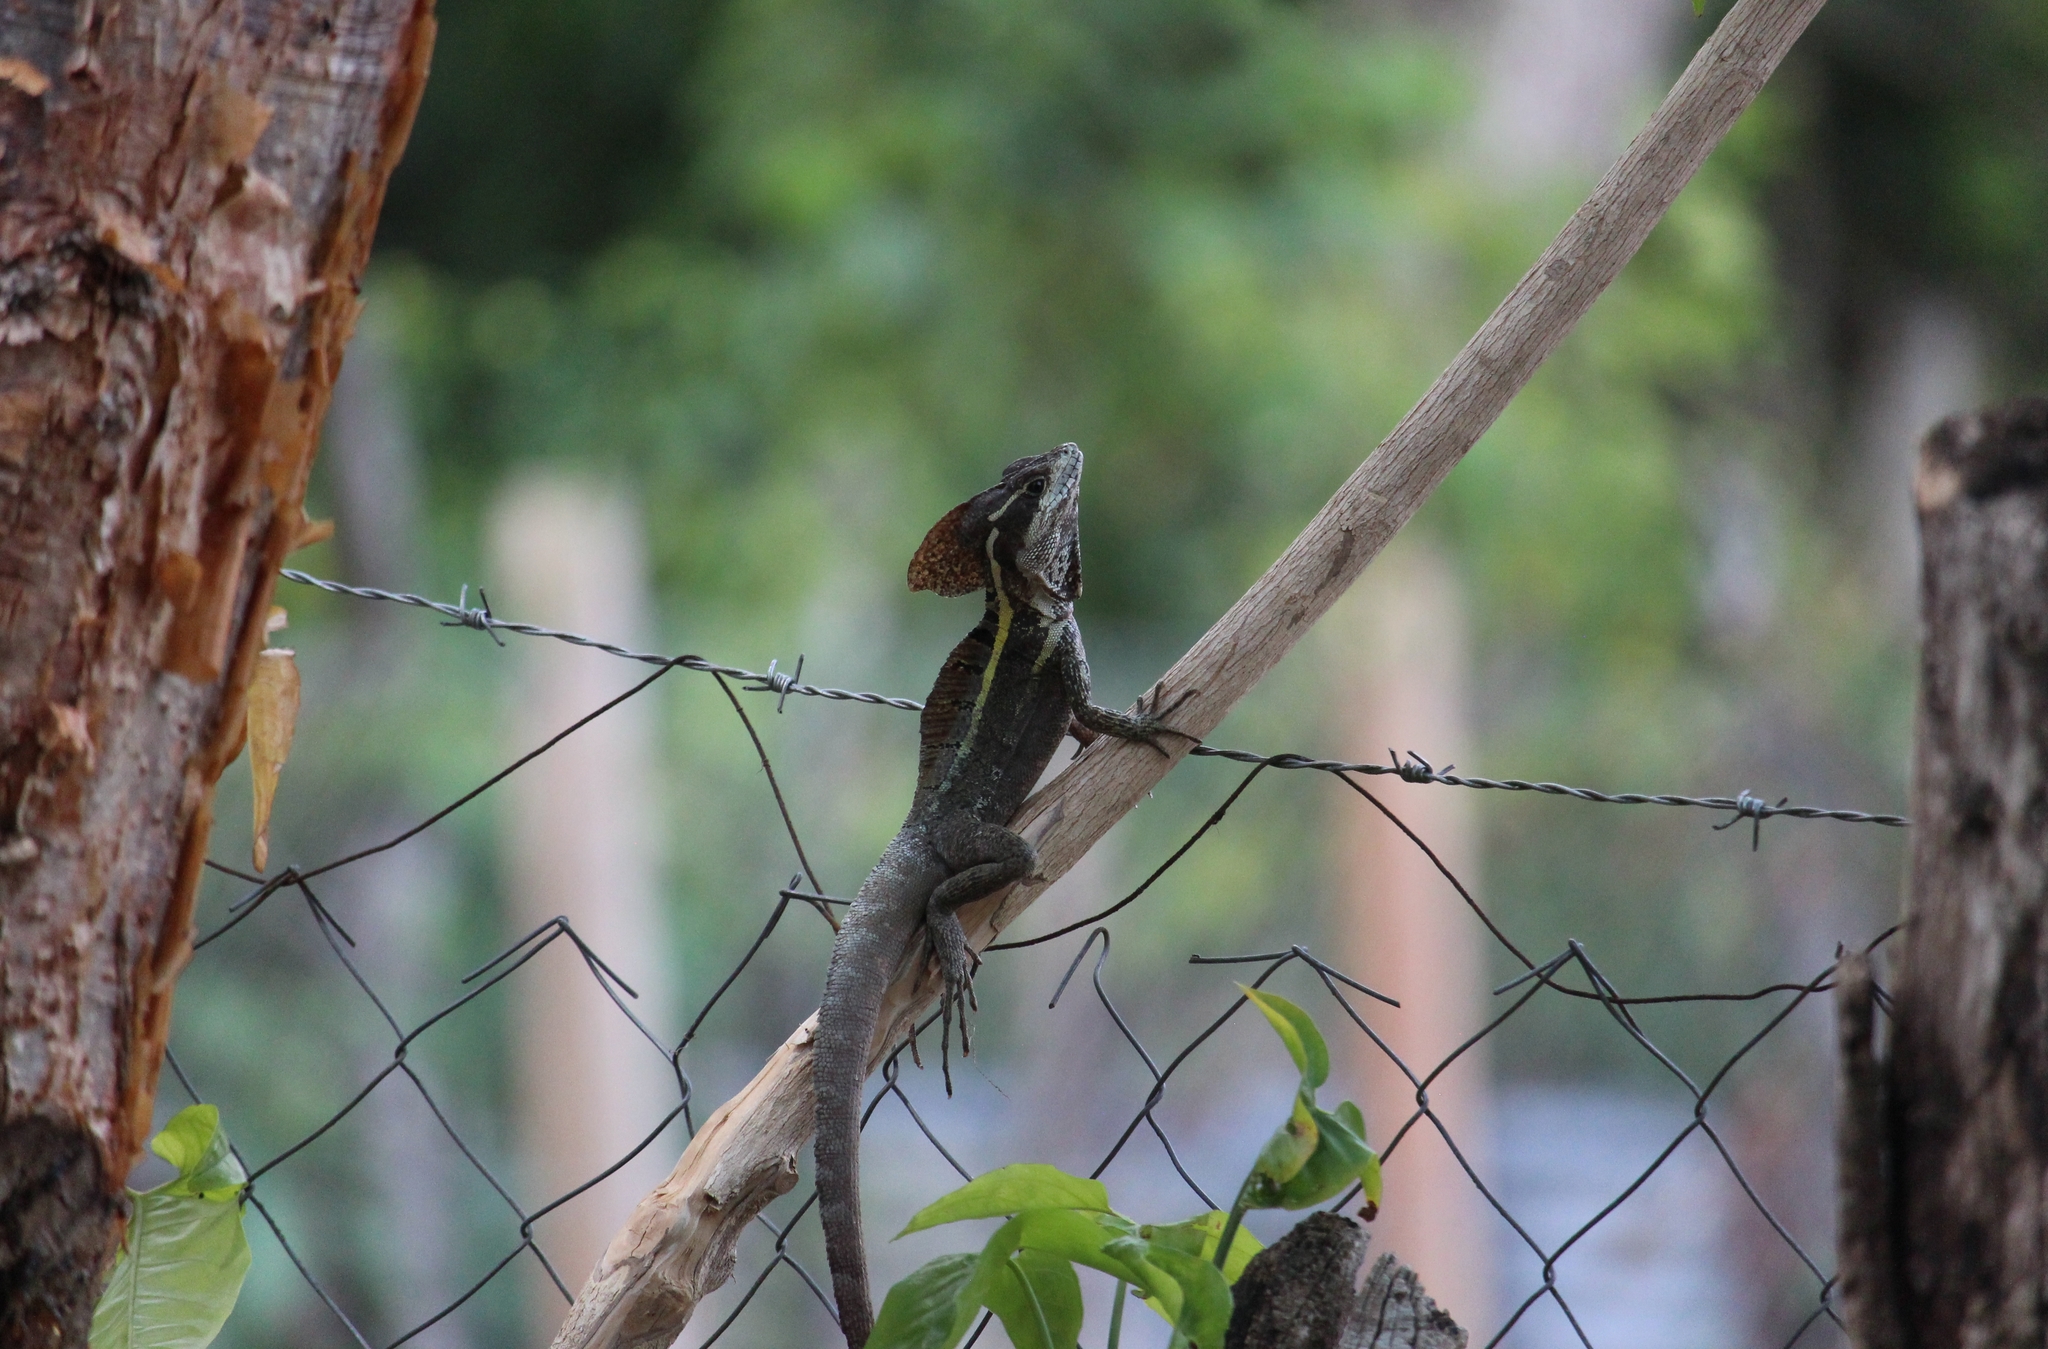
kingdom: Animalia
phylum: Chordata
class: Squamata
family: Corytophanidae
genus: Basiliscus
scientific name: Basiliscus vittatus
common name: Brown basilisk
